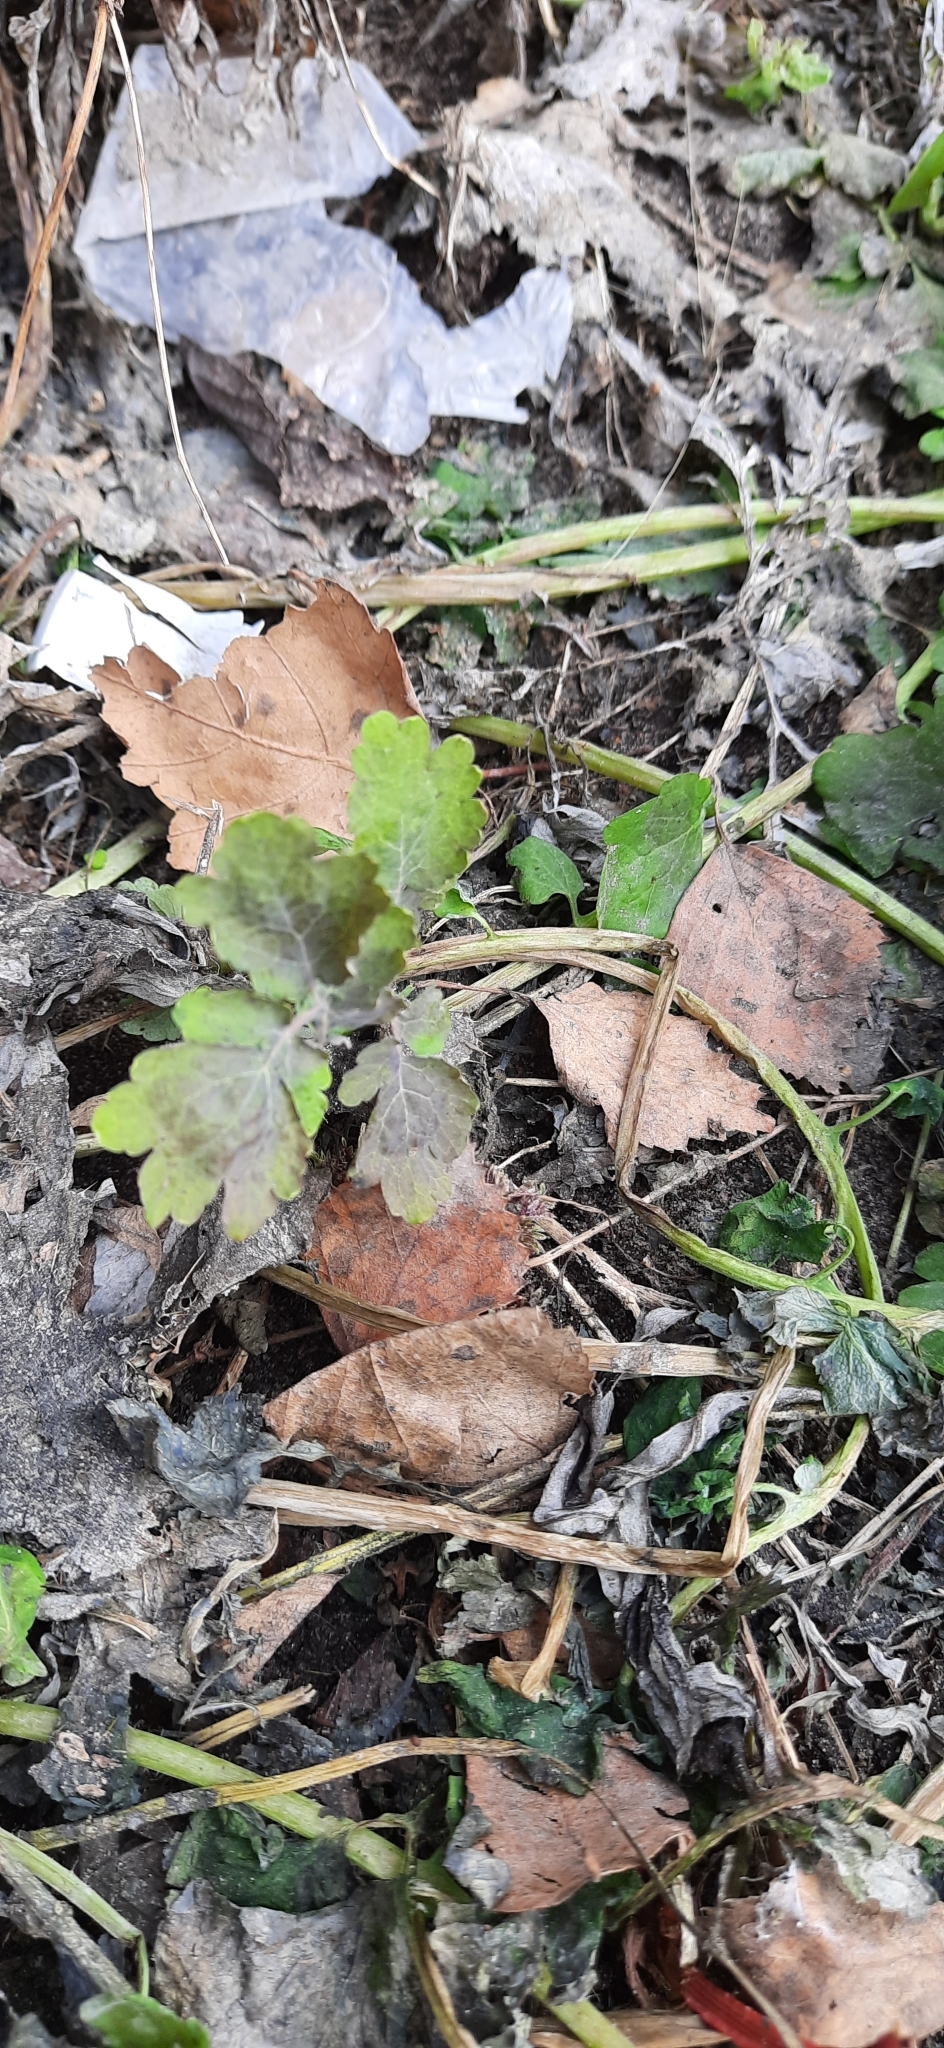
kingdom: Plantae
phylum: Tracheophyta
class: Magnoliopsida
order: Ranunculales
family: Papaveraceae
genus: Chelidonium
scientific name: Chelidonium majus
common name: Greater celandine
